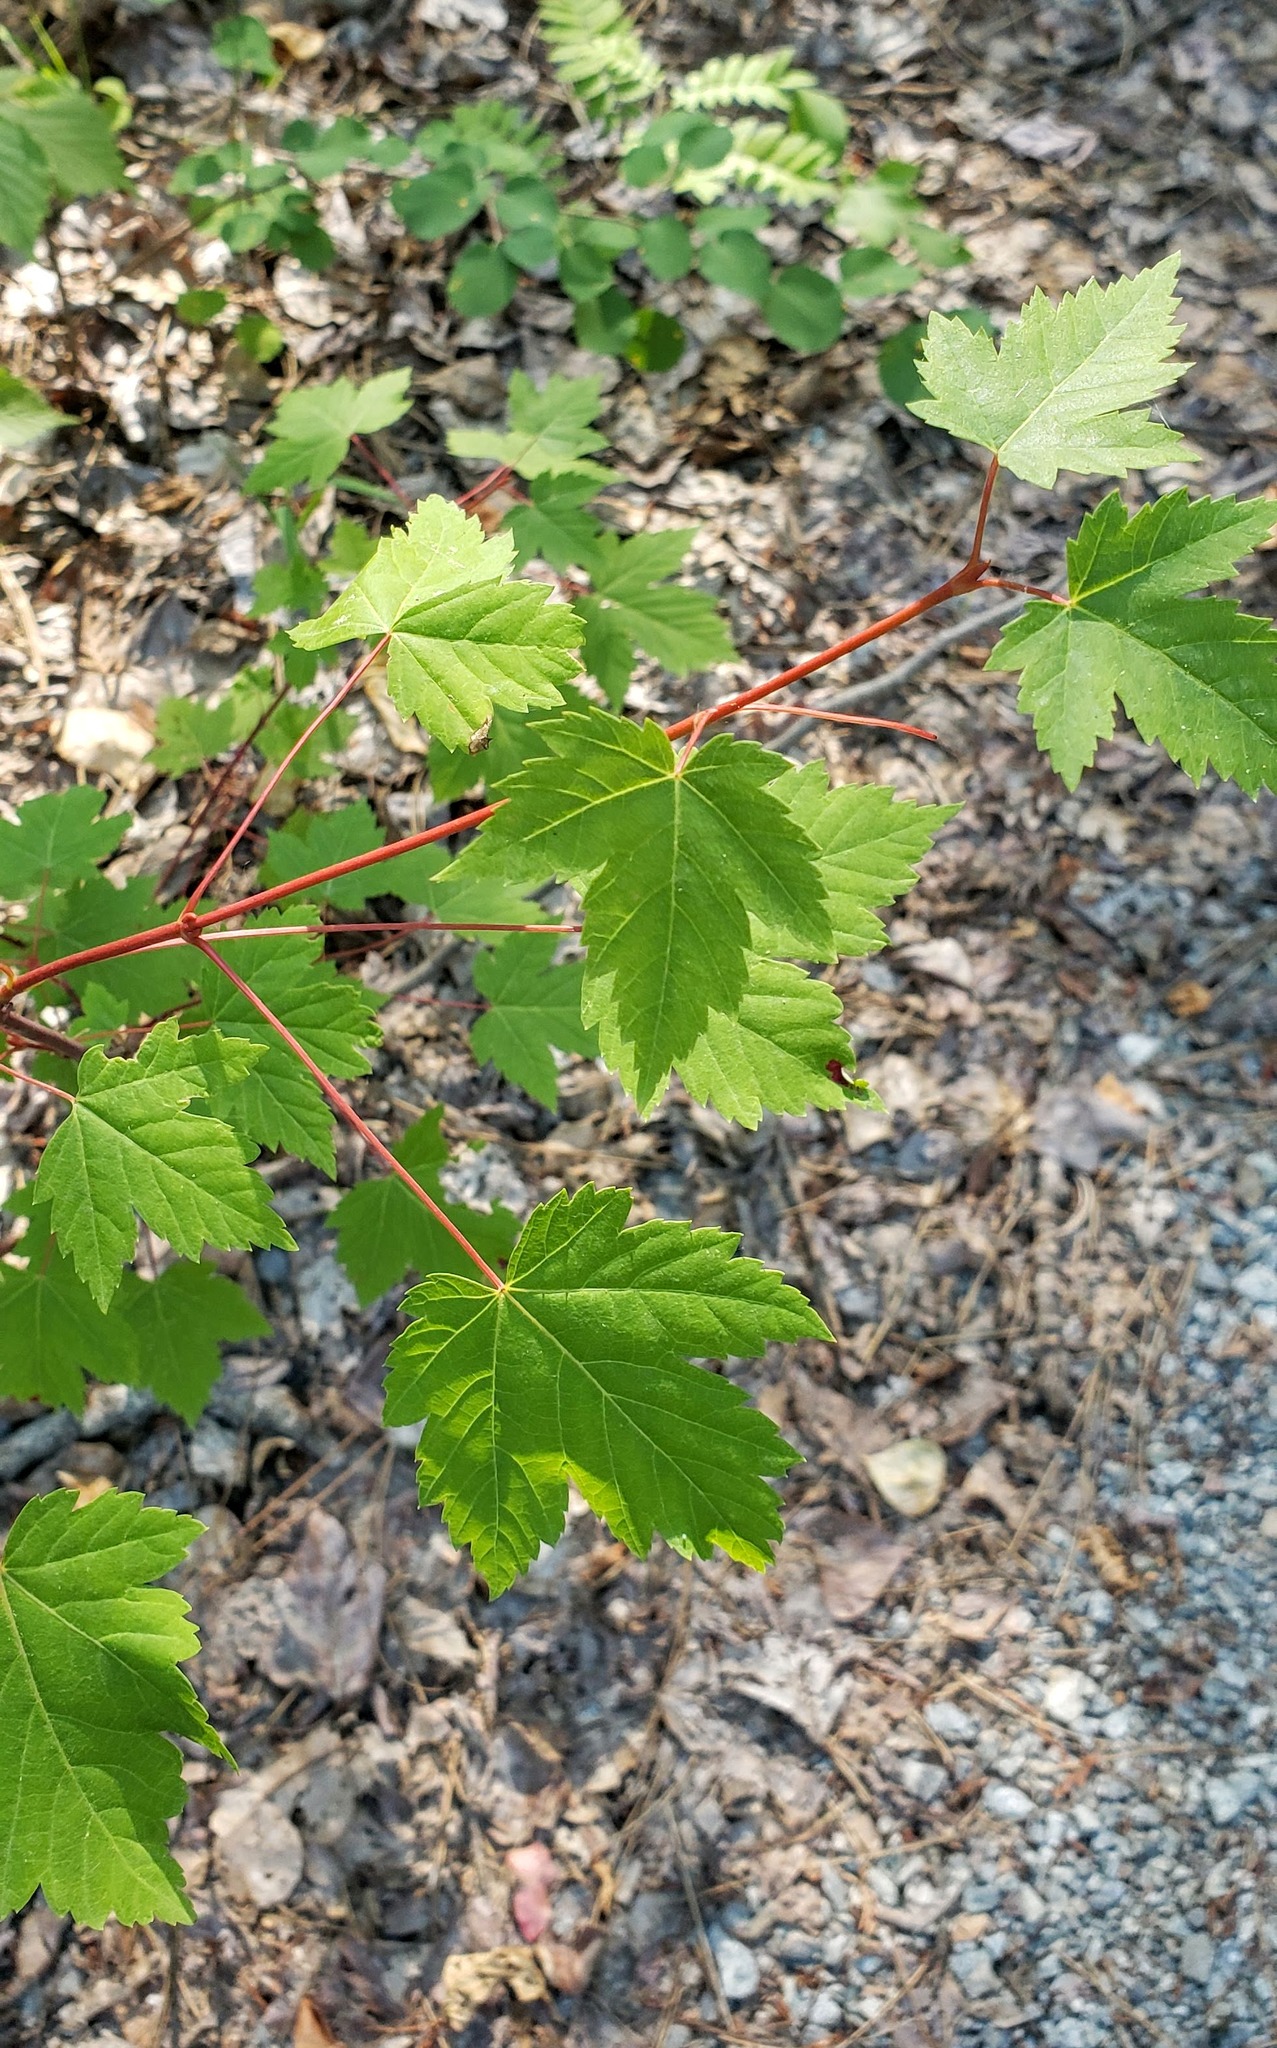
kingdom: Plantae
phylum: Tracheophyta
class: Magnoliopsida
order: Sapindales
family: Sapindaceae
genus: Acer
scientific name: Acer glabrum
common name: Rocky mountain maple
